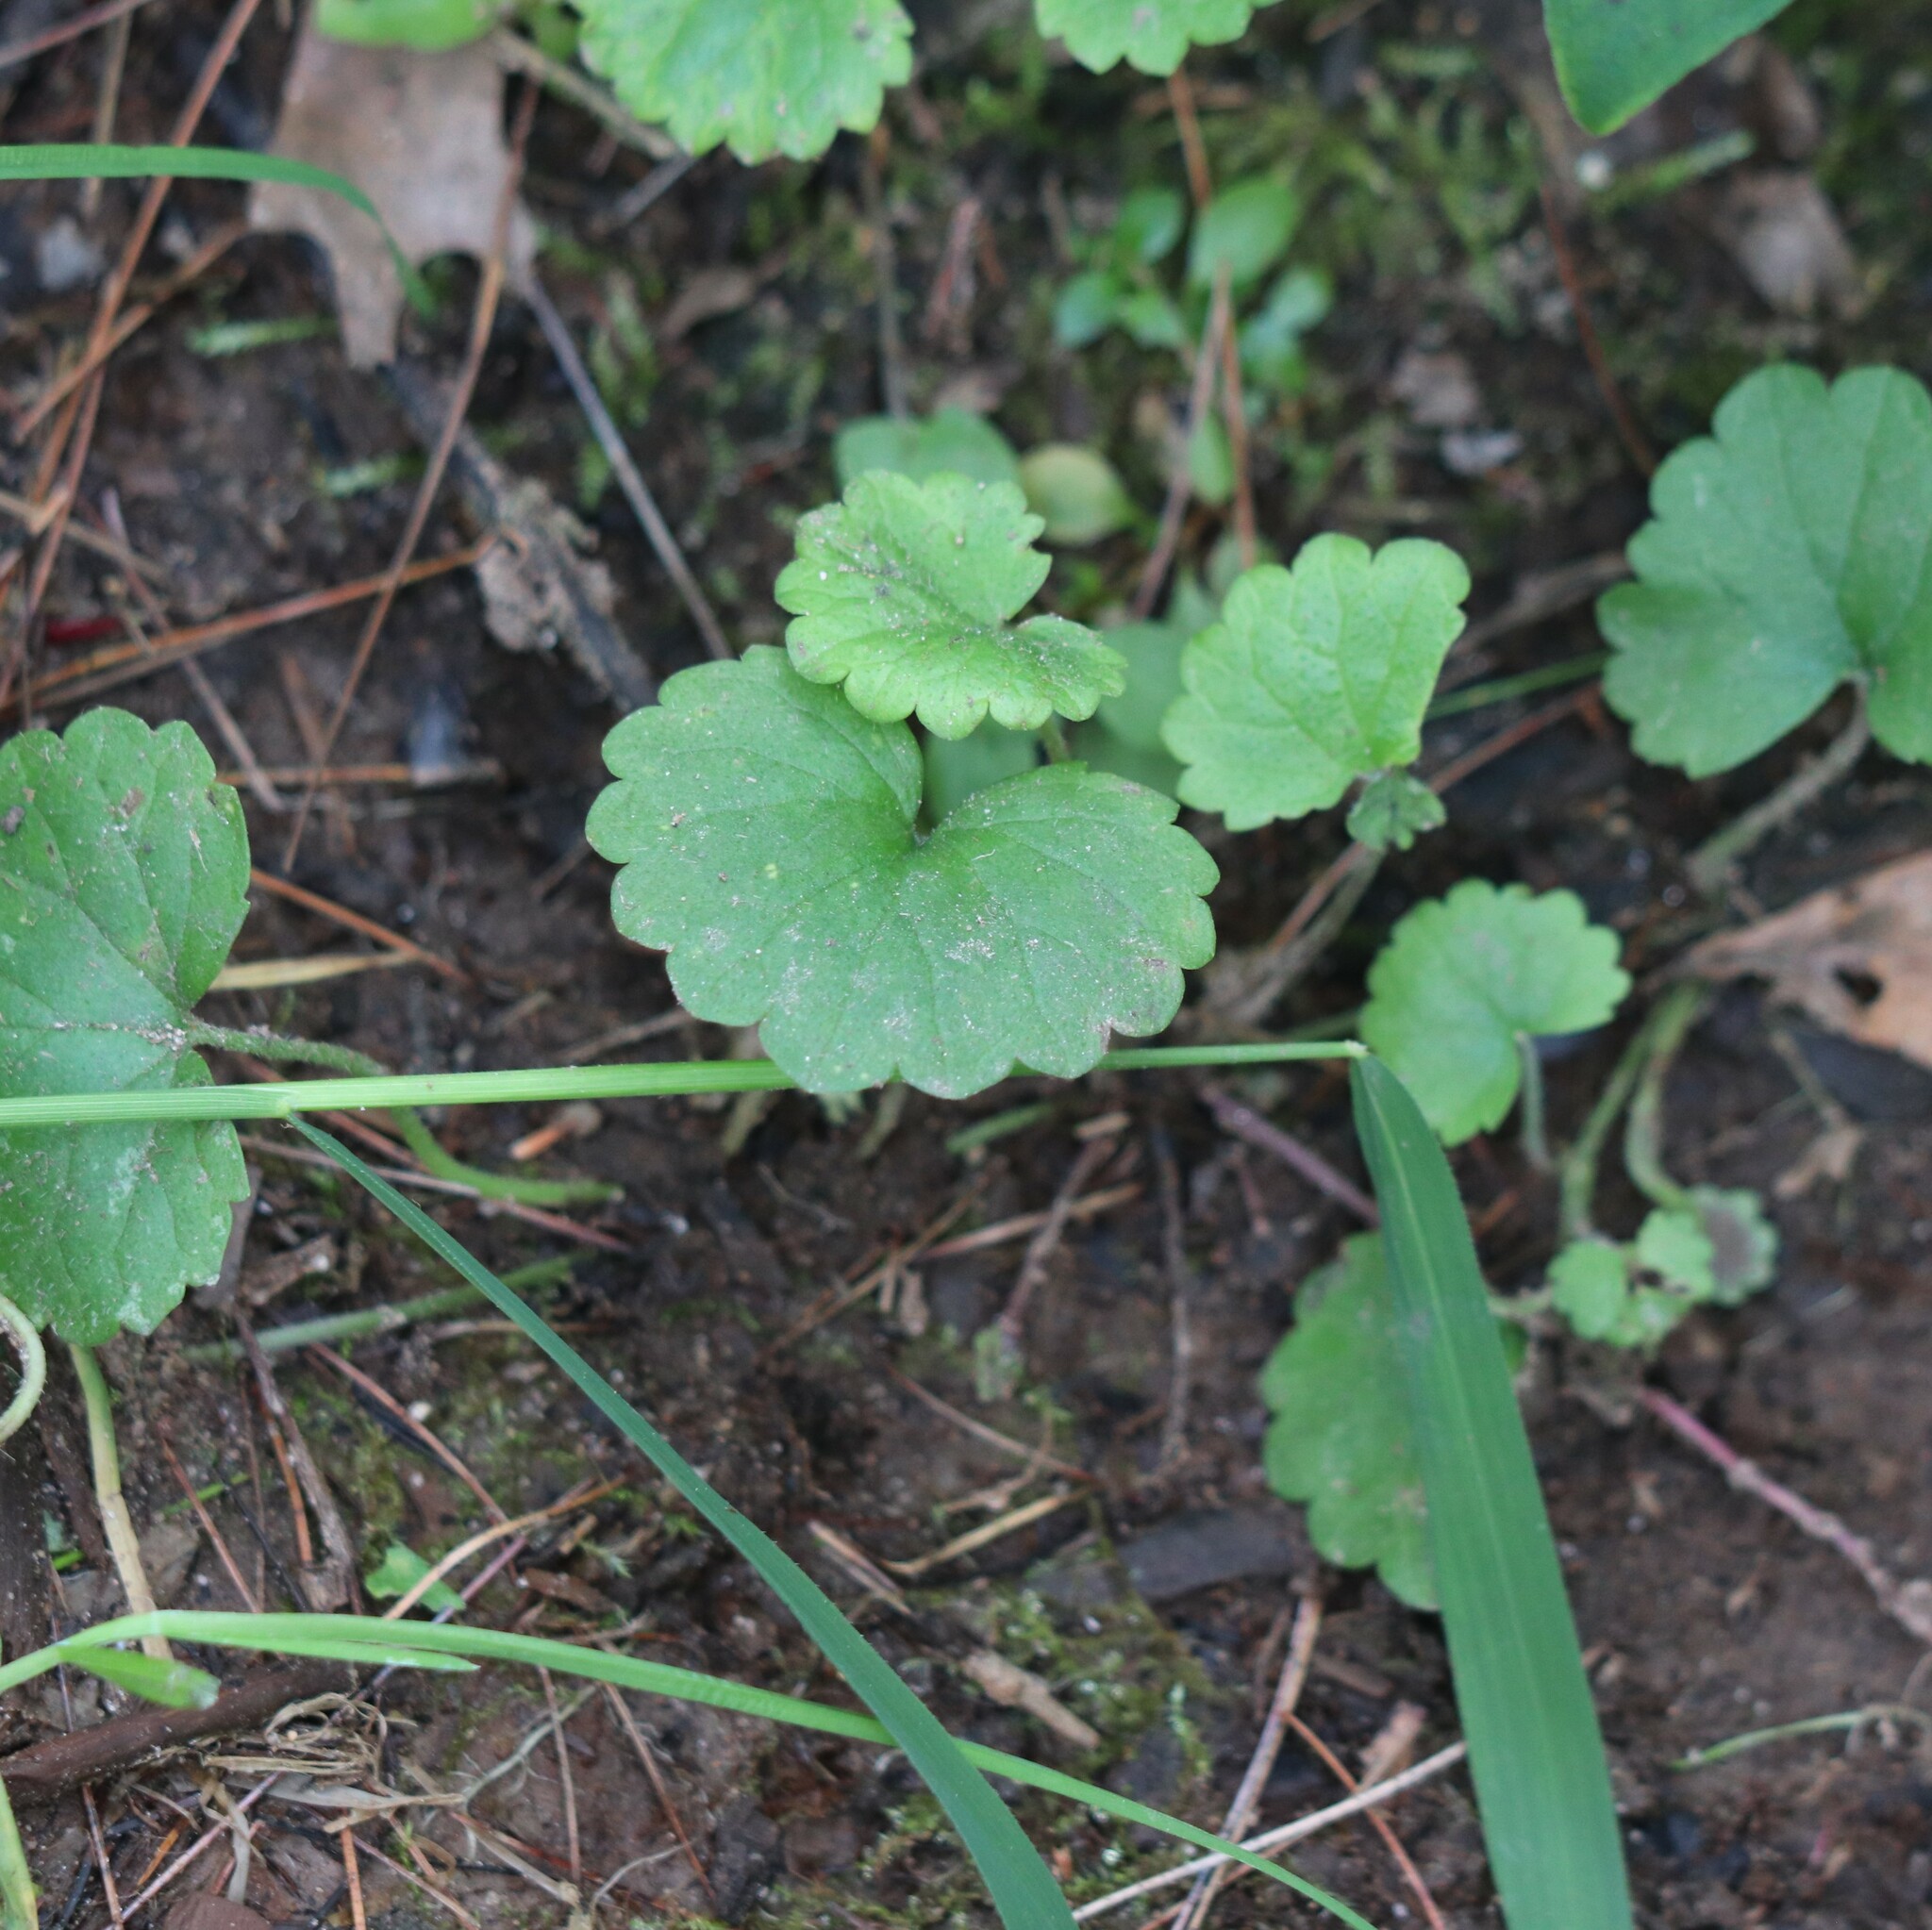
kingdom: Plantae
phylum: Tracheophyta
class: Magnoliopsida
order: Lamiales
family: Lamiaceae
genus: Glechoma
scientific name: Glechoma hederacea
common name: Ground ivy
